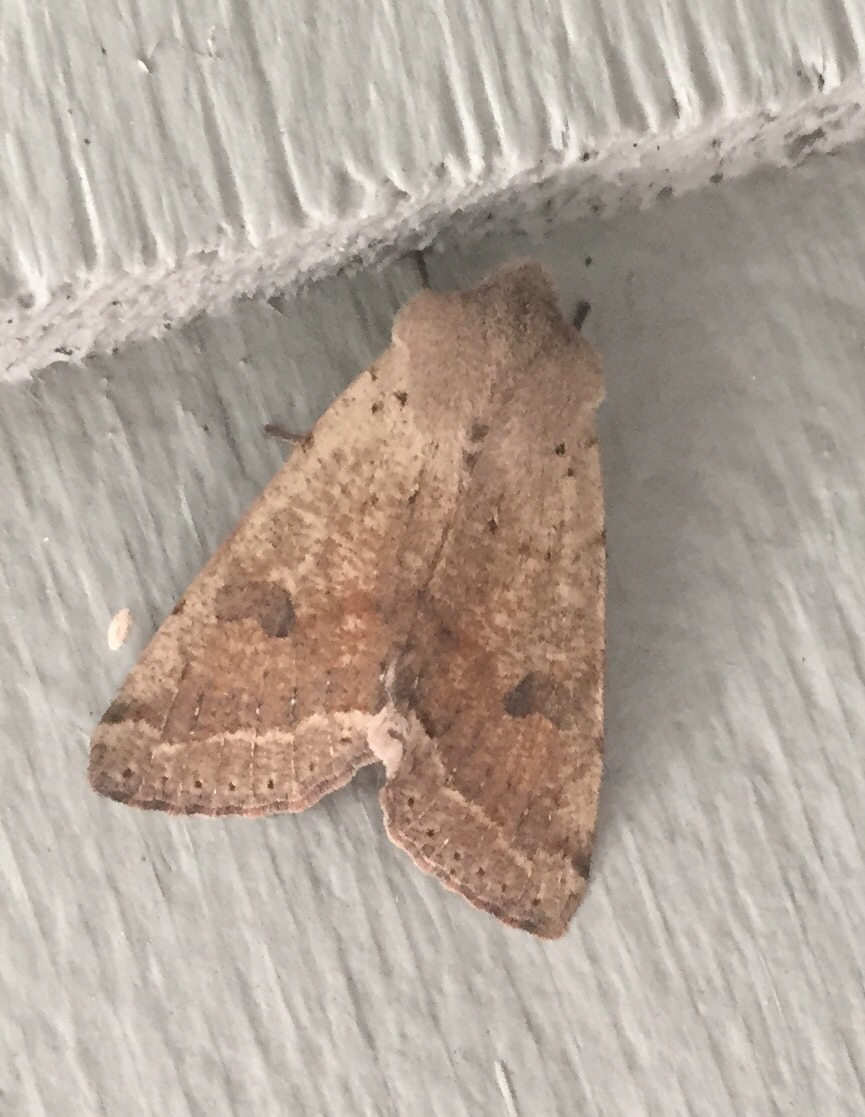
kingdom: Animalia
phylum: Arthropoda
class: Insecta
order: Lepidoptera
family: Noctuidae
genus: Orthosia
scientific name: Orthosia pacifica
